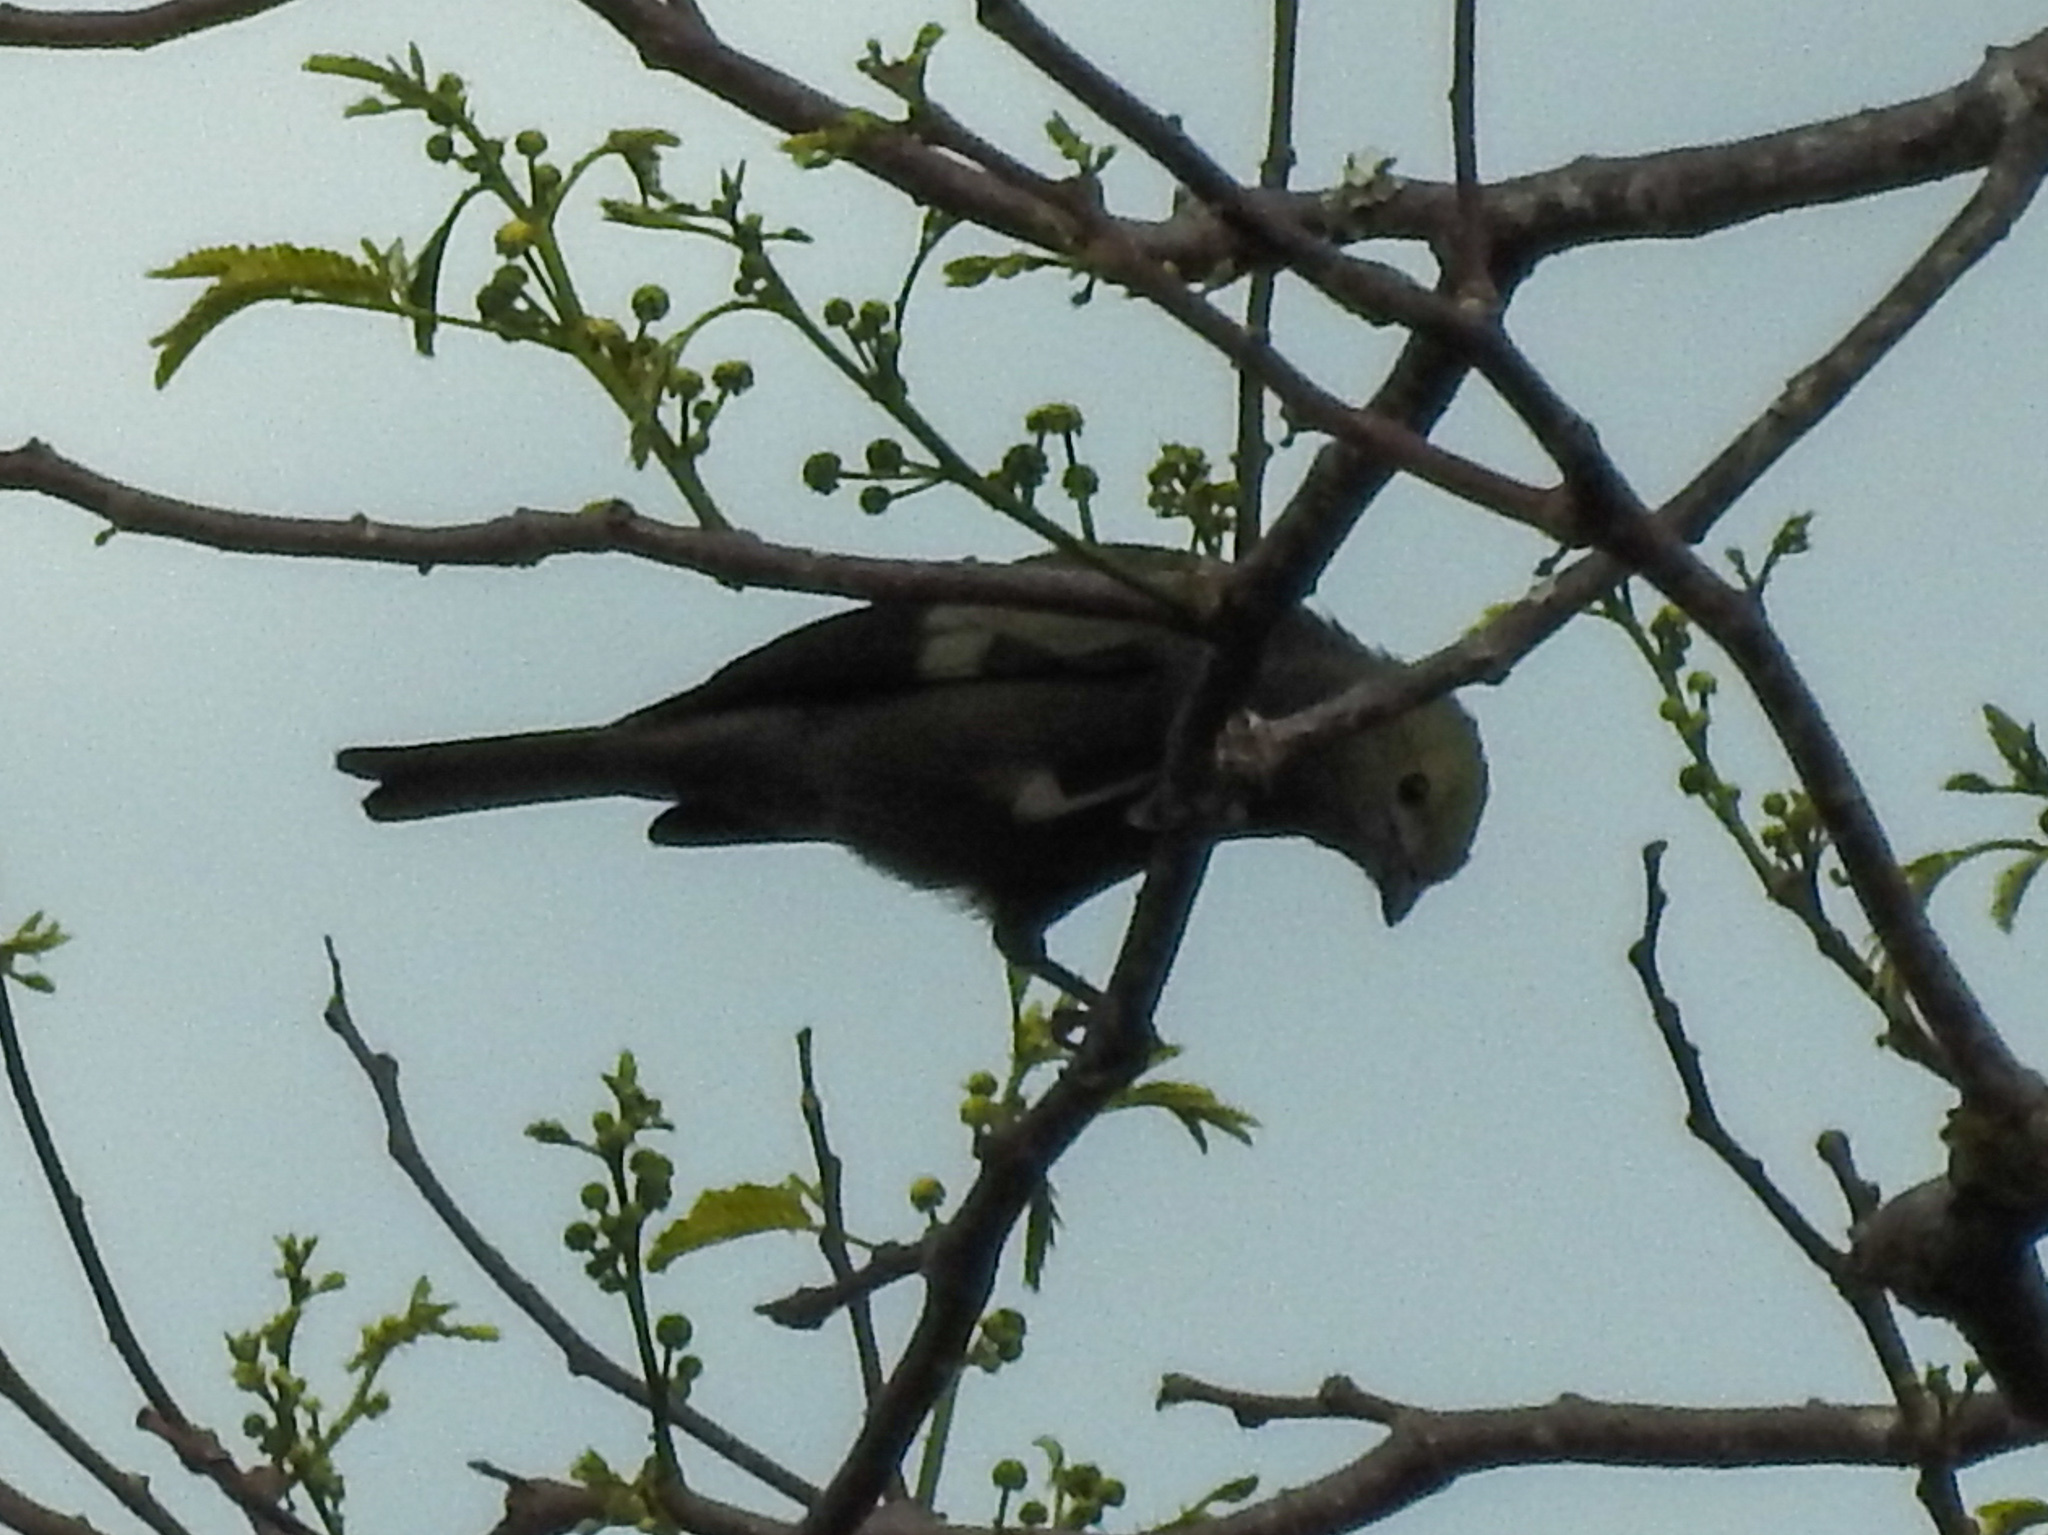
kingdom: Animalia
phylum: Chordata
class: Aves
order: Passeriformes
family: Thraupidae
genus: Thraupis
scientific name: Thraupis palmarum
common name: Palm tanager
